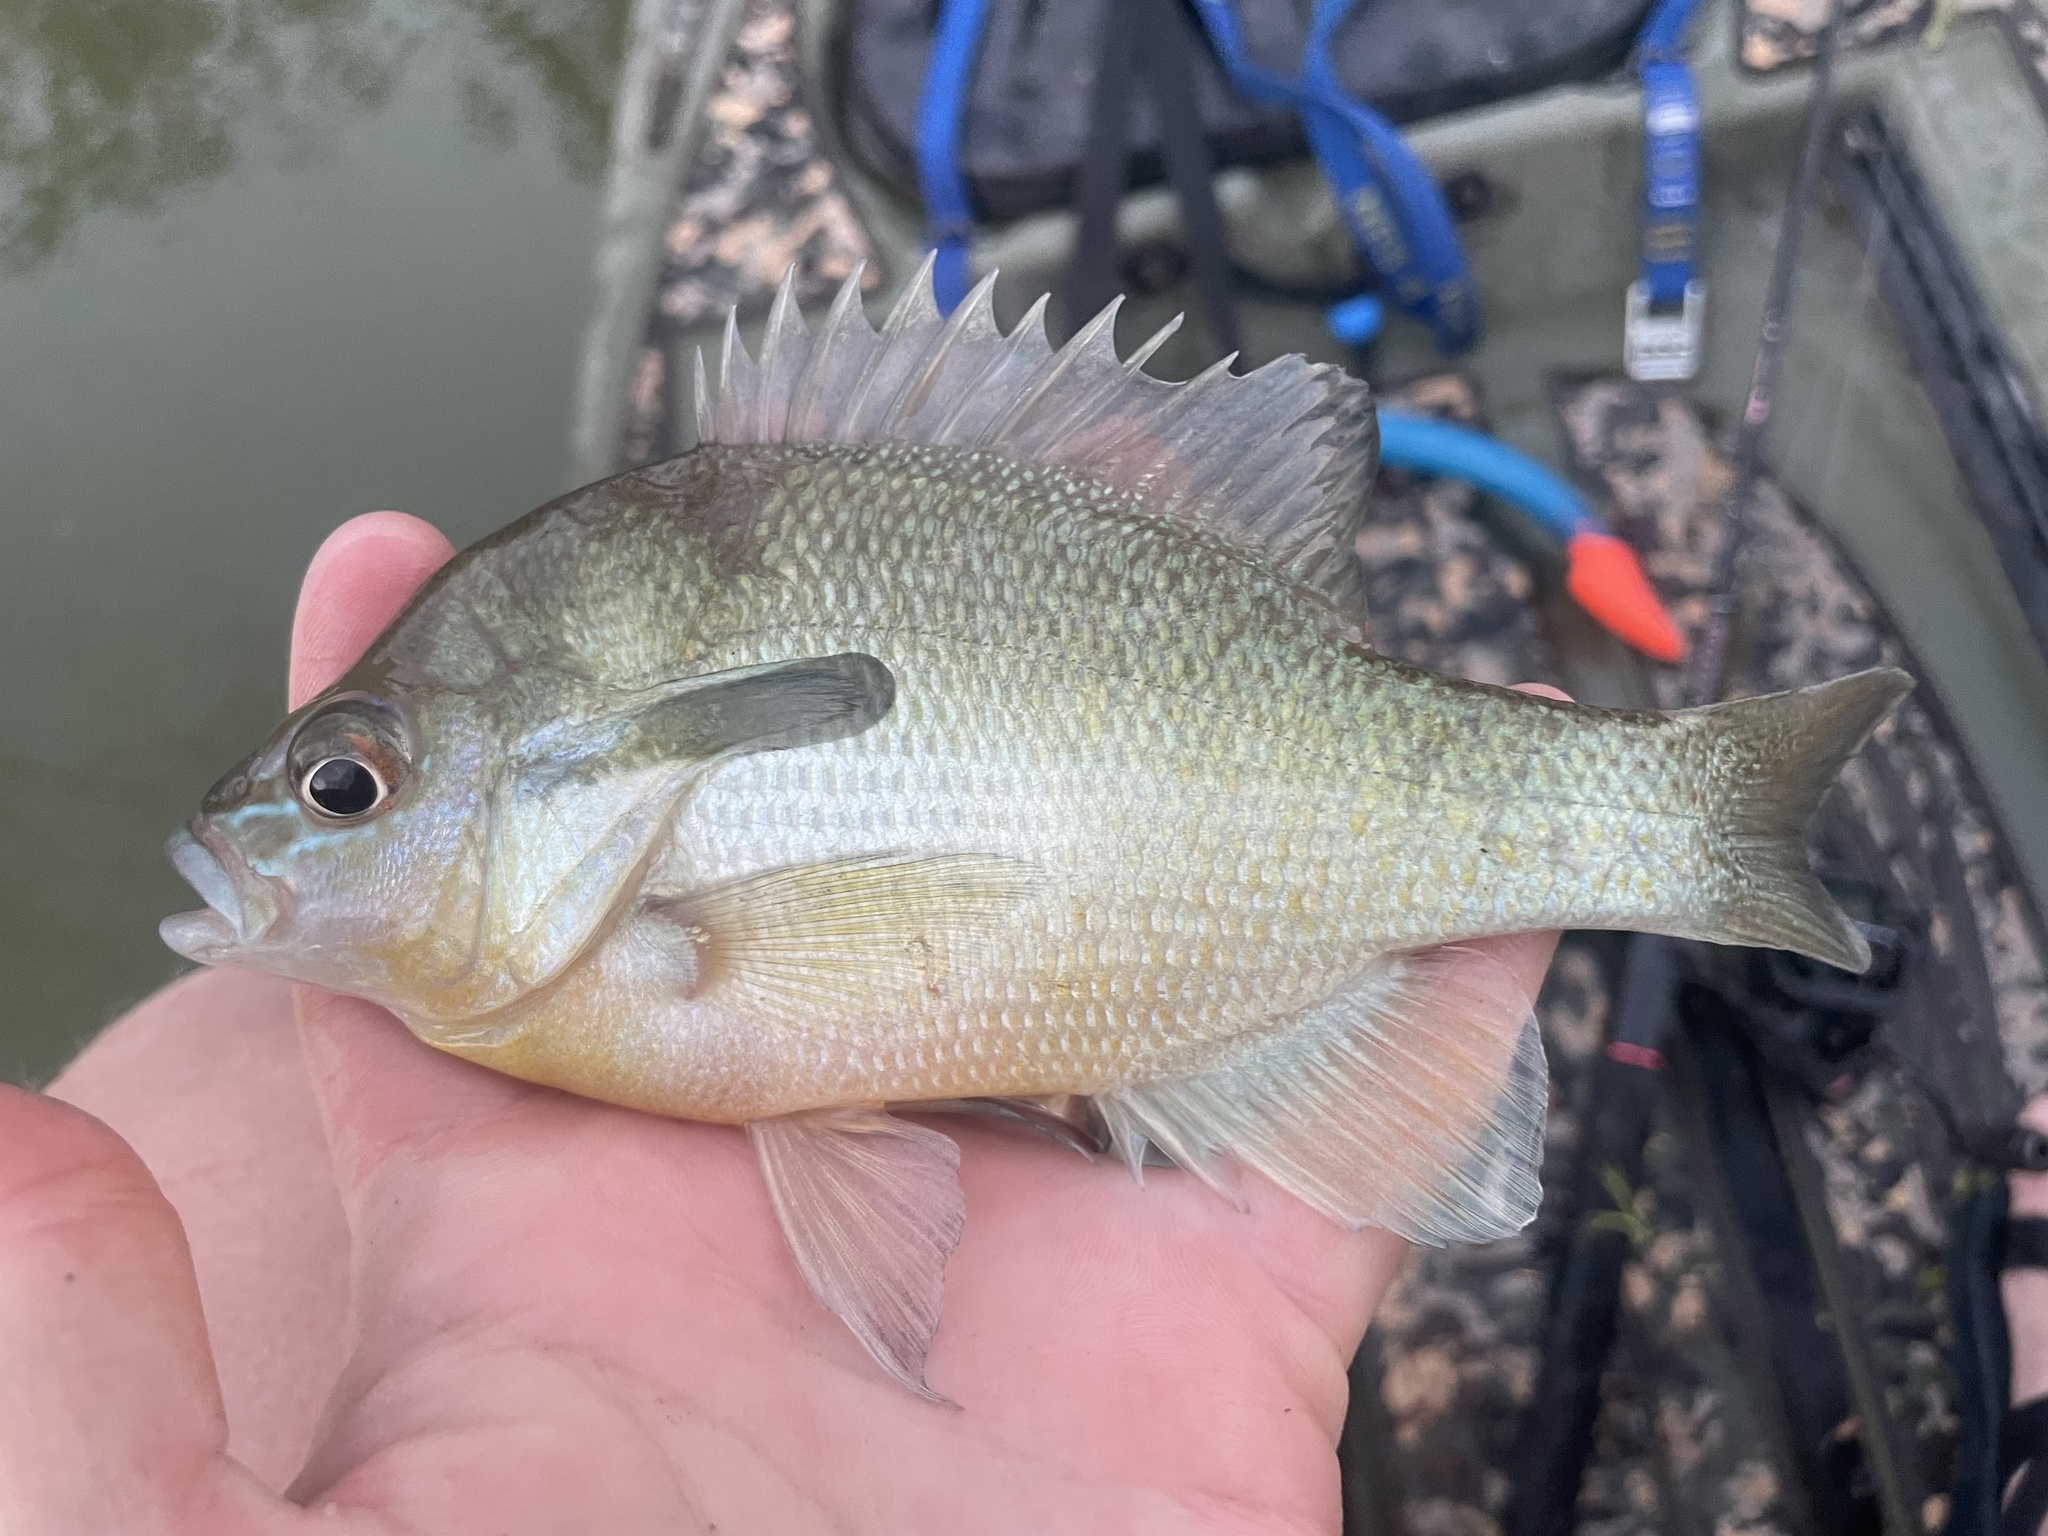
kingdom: Animalia
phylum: Chordata
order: Perciformes
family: Centrarchidae
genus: Lepomis
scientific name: Lepomis auritus
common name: Redbreast sunfish
